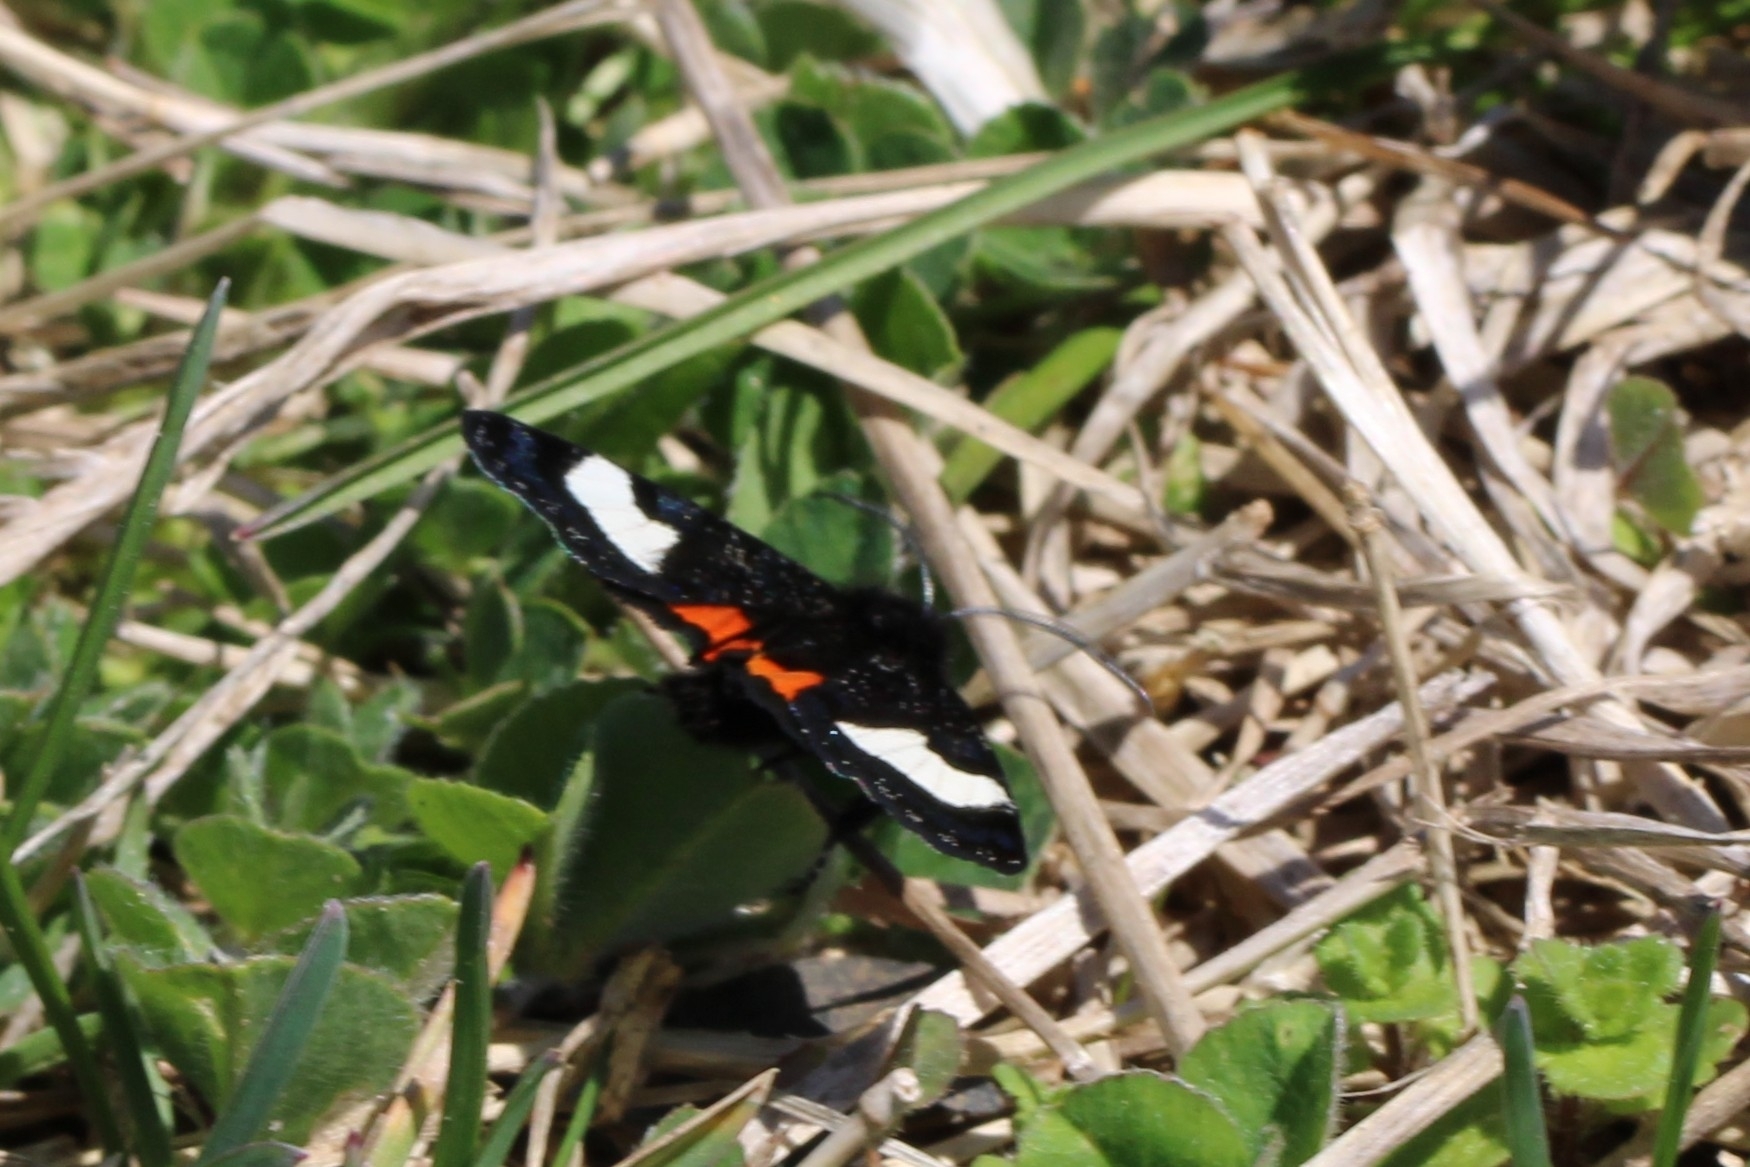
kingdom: Animalia
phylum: Arthropoda
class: Insecta
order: Lepidoptera
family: Noctuidae
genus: Psychomorpha
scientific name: Psychomorpha epimenis
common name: Grapevine epimenis moth
